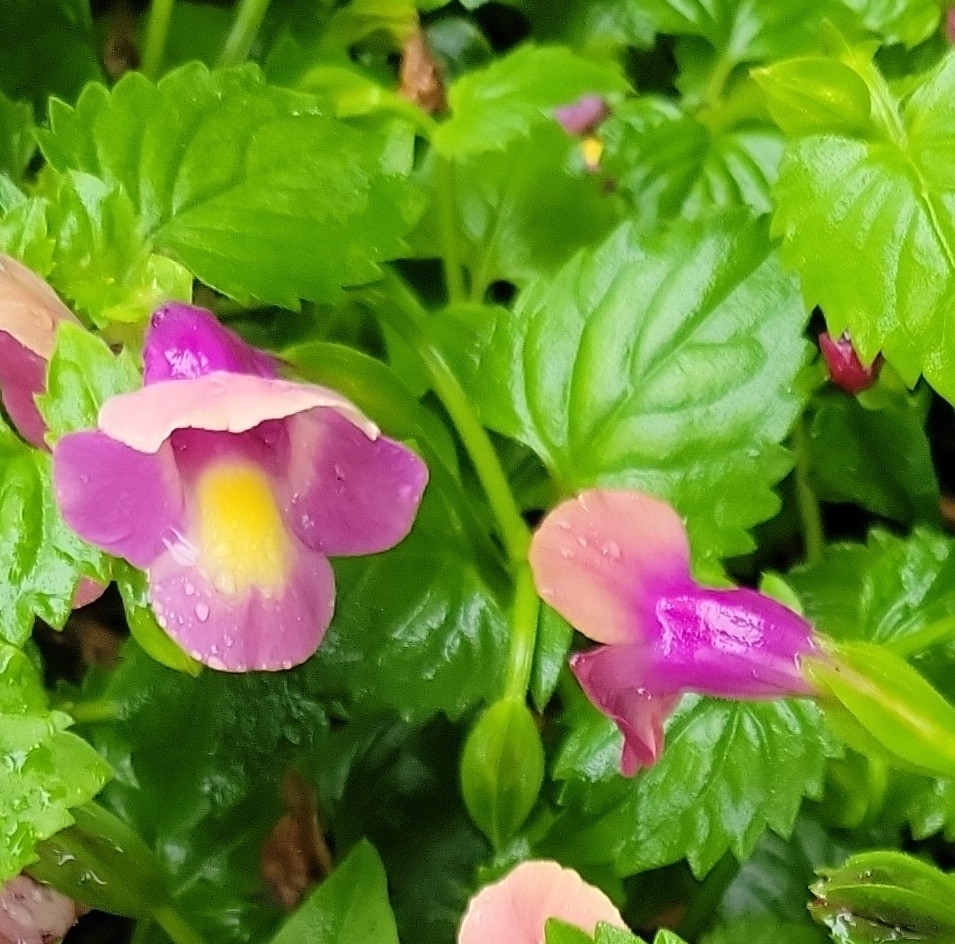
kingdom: Plantae
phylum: Tracheophyta
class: Magnoliopsida
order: Lamiales
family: Linderniaceae
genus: Torenia
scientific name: Torenia fournieri
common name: Bluewings
